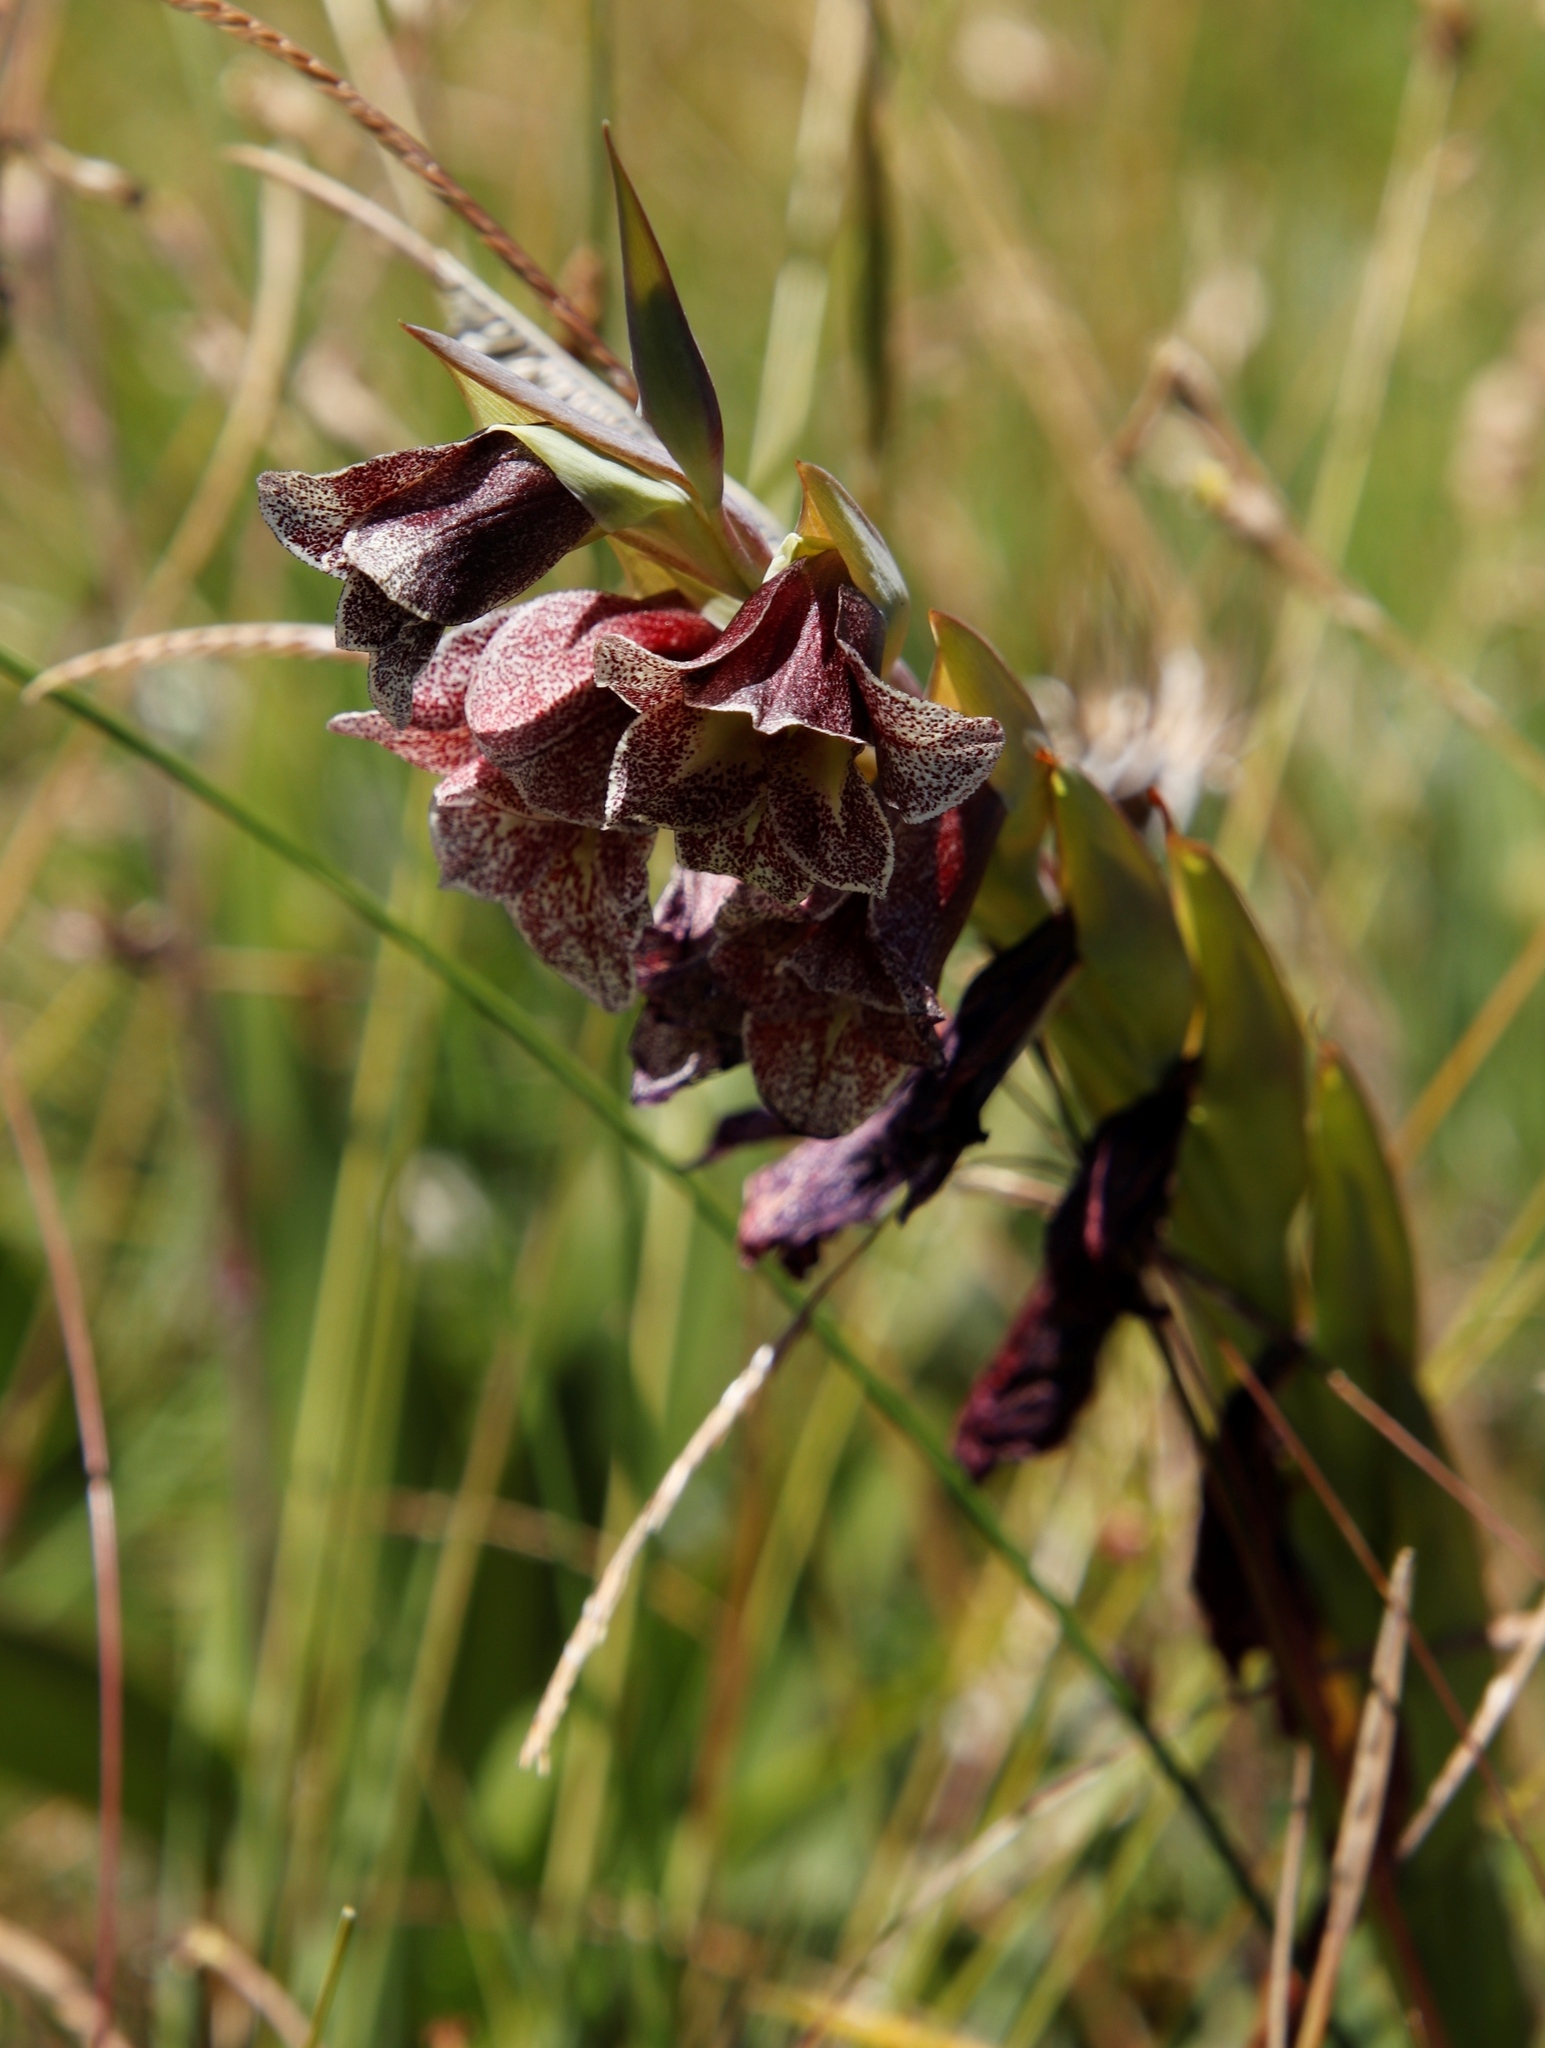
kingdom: Plantae
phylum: Tracheophyta
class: Liliopsida
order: Asparagales
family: Iridaceae
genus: Gladiolus
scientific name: Gladiolus ecklonii
